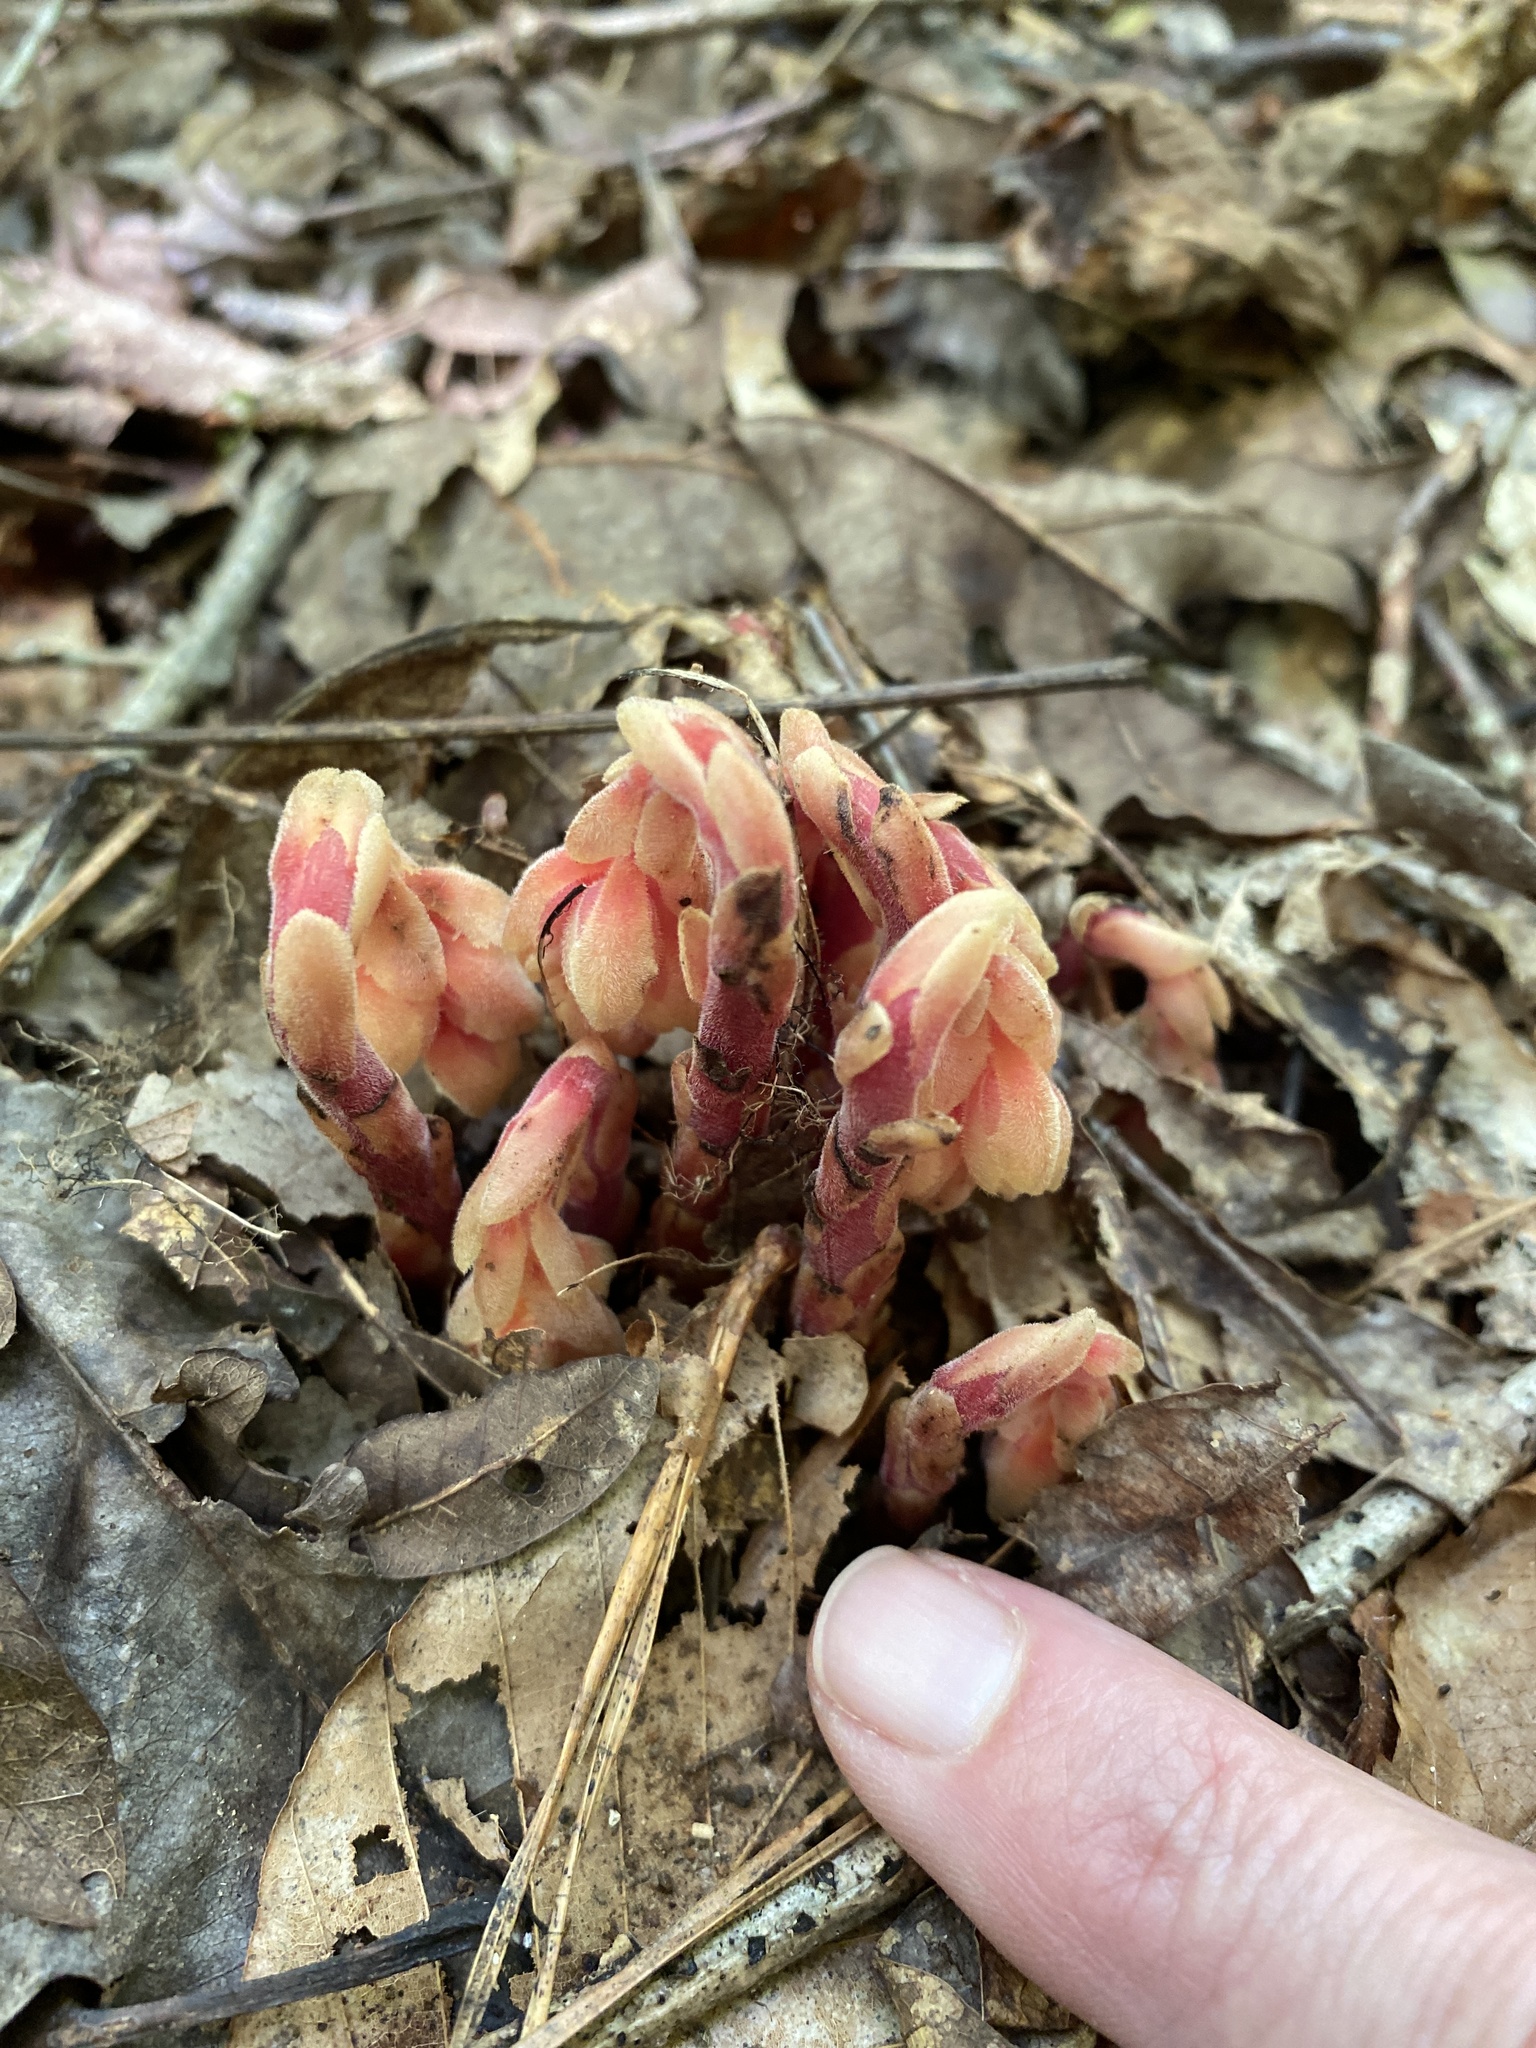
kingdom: Plantae
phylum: Tracheophyta
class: Magnoliopsida
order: Ericales
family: Ericaceae
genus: Hypopitys
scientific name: Hypopitys monotropa
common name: Yellow bird's-nest
